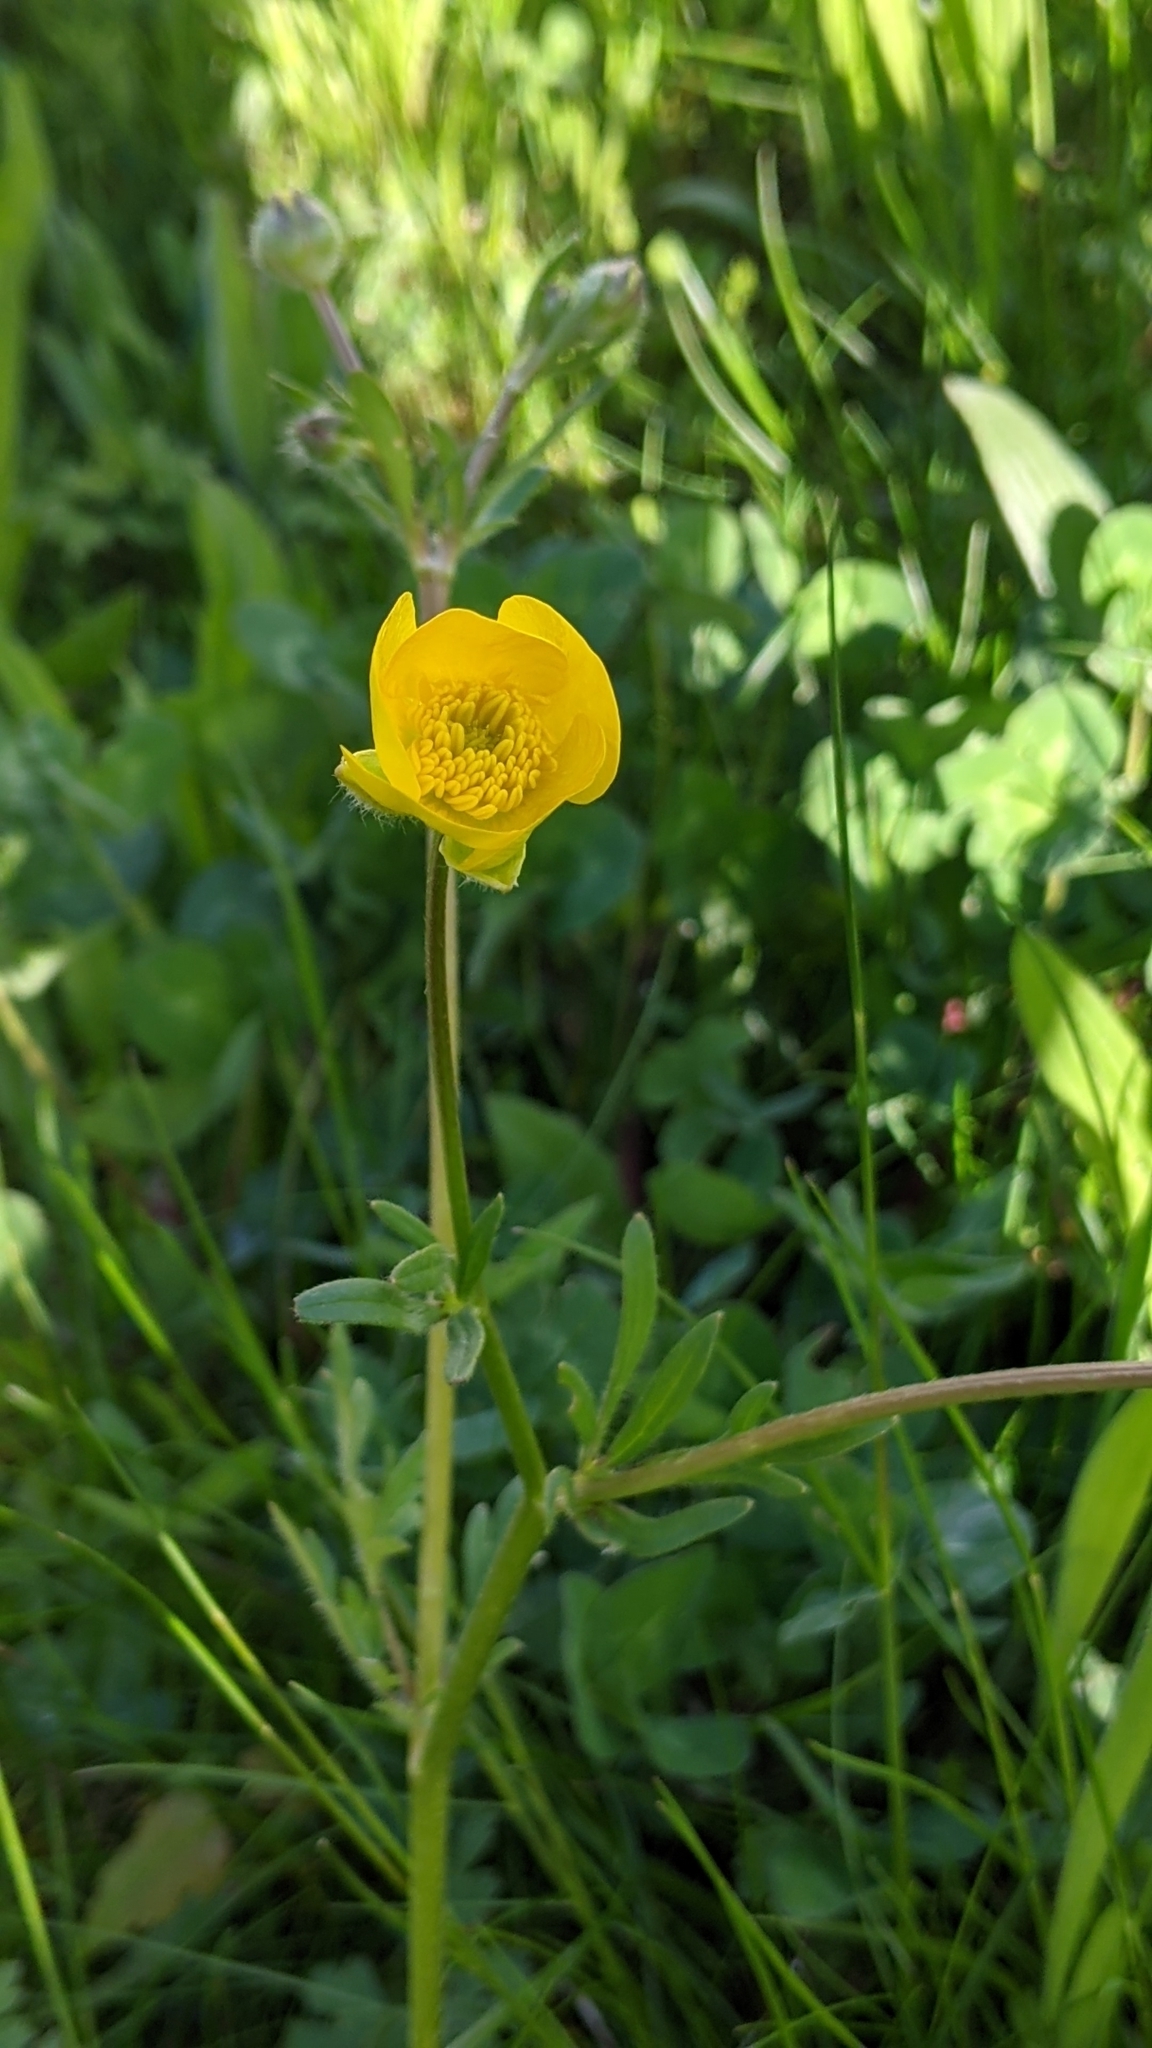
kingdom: Plantae
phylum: Tracheophyta
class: Magnoliopsida
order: Ranunculales
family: Ranunculaceae
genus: Ranunculus
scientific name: Ranunculus acris
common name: Meadow buttercup
